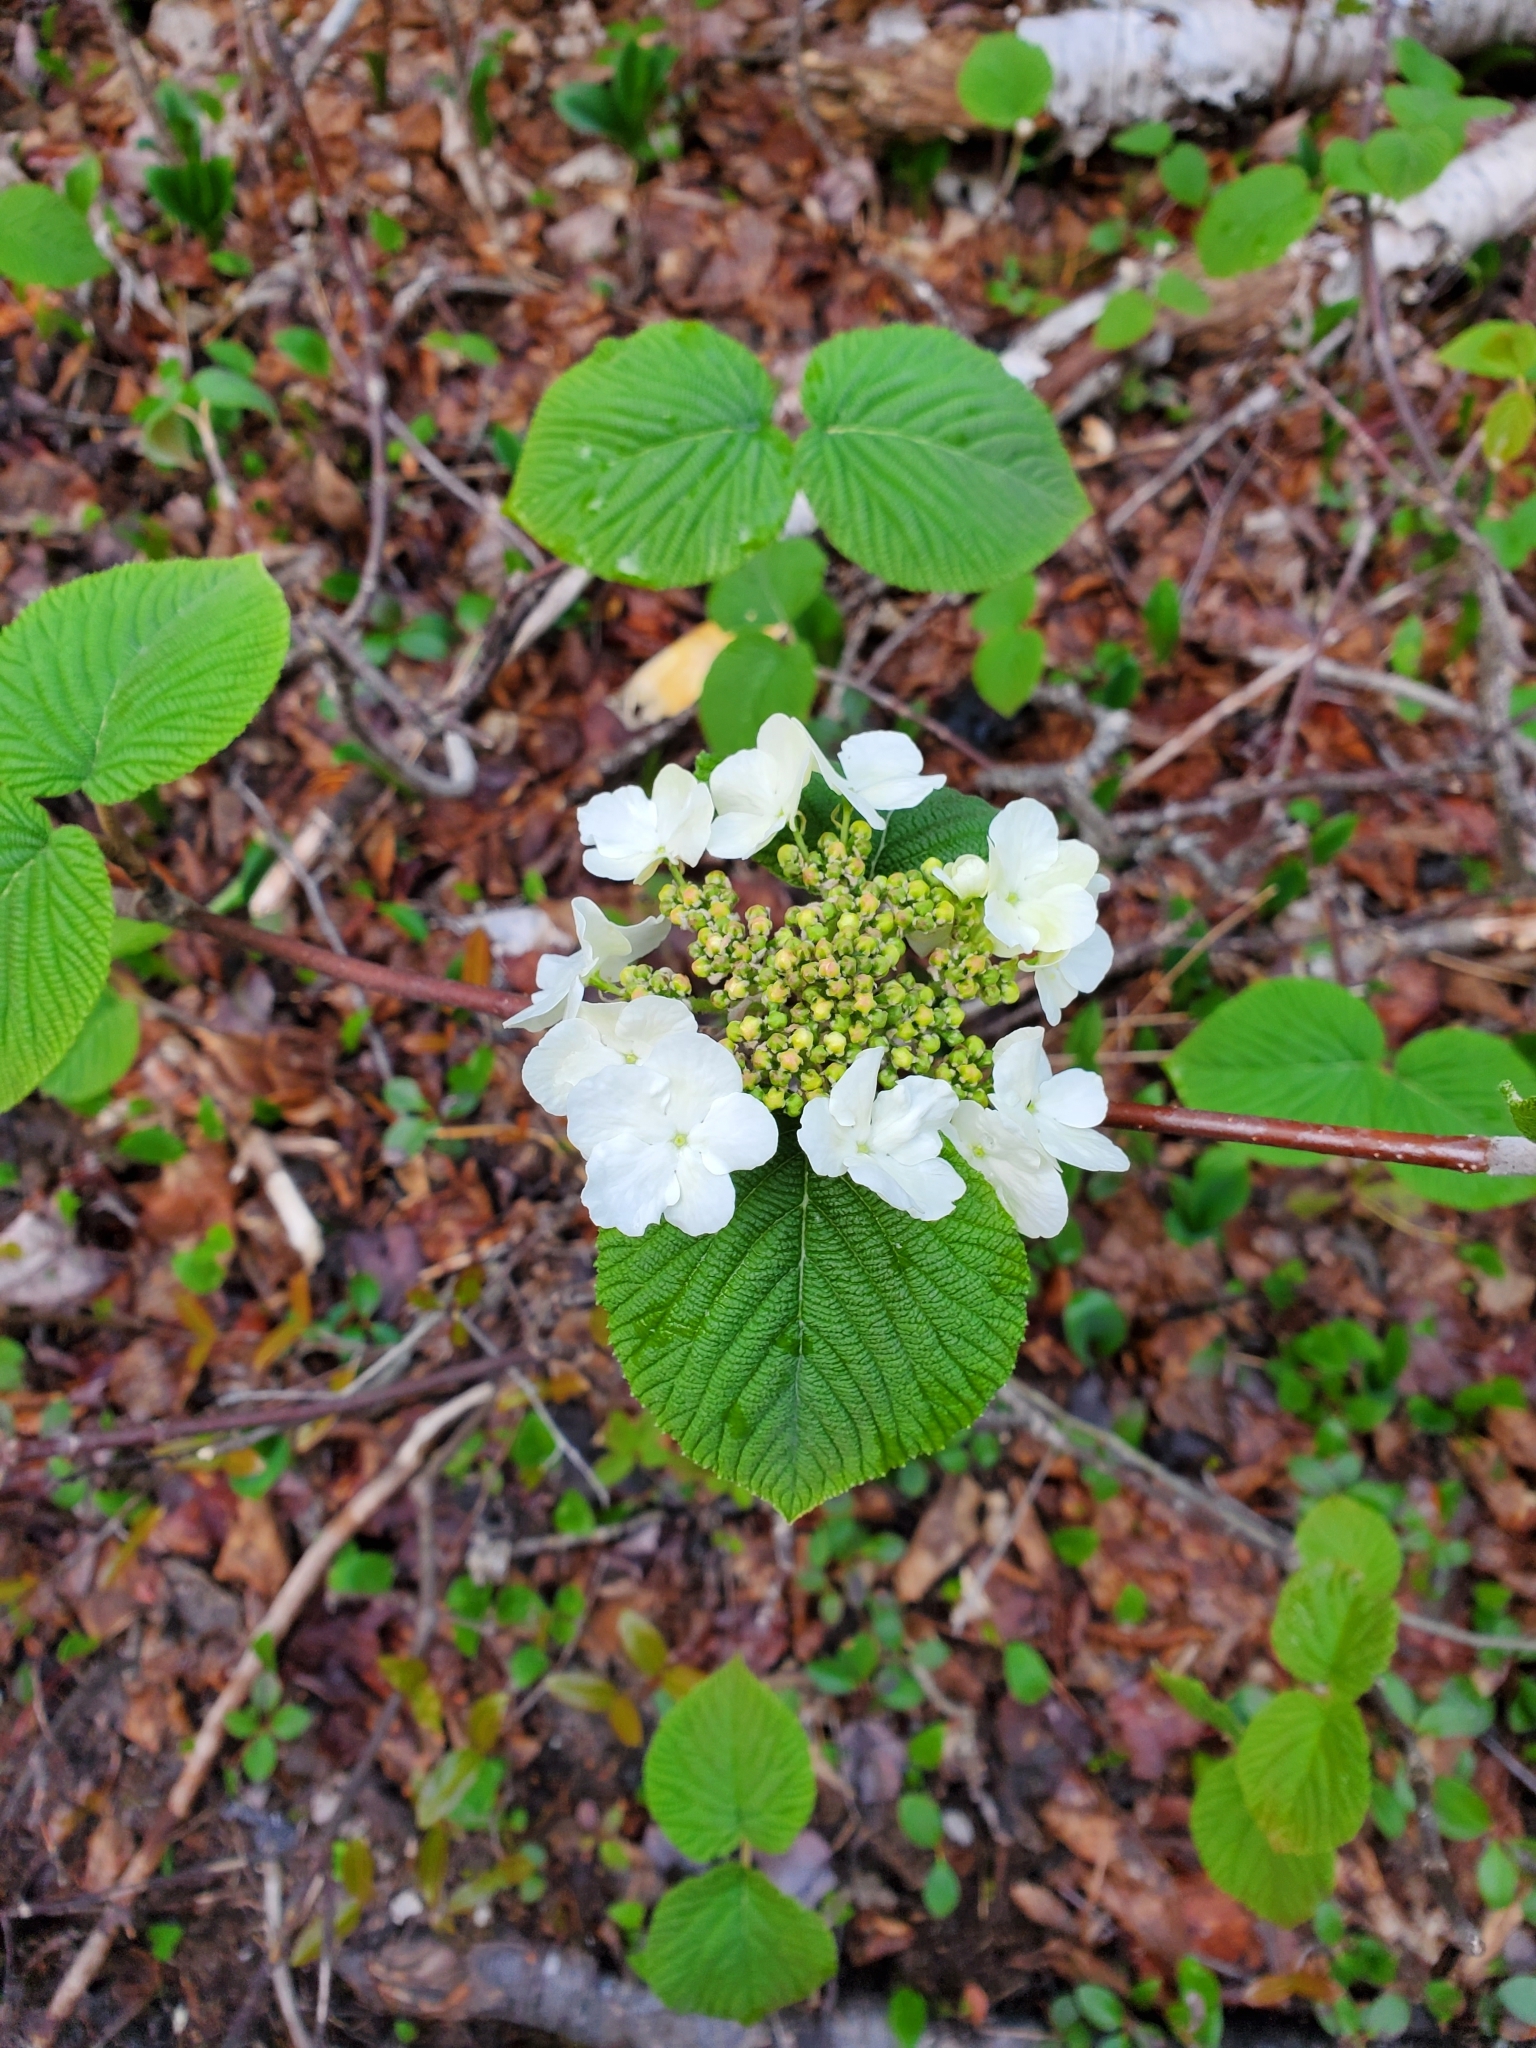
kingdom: Plantae
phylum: Tracheophyta
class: Magnoliopsida
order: Dipsacales
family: Viburnaceae
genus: Viburnum
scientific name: Viburnum lantanoides
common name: Hobblebush
